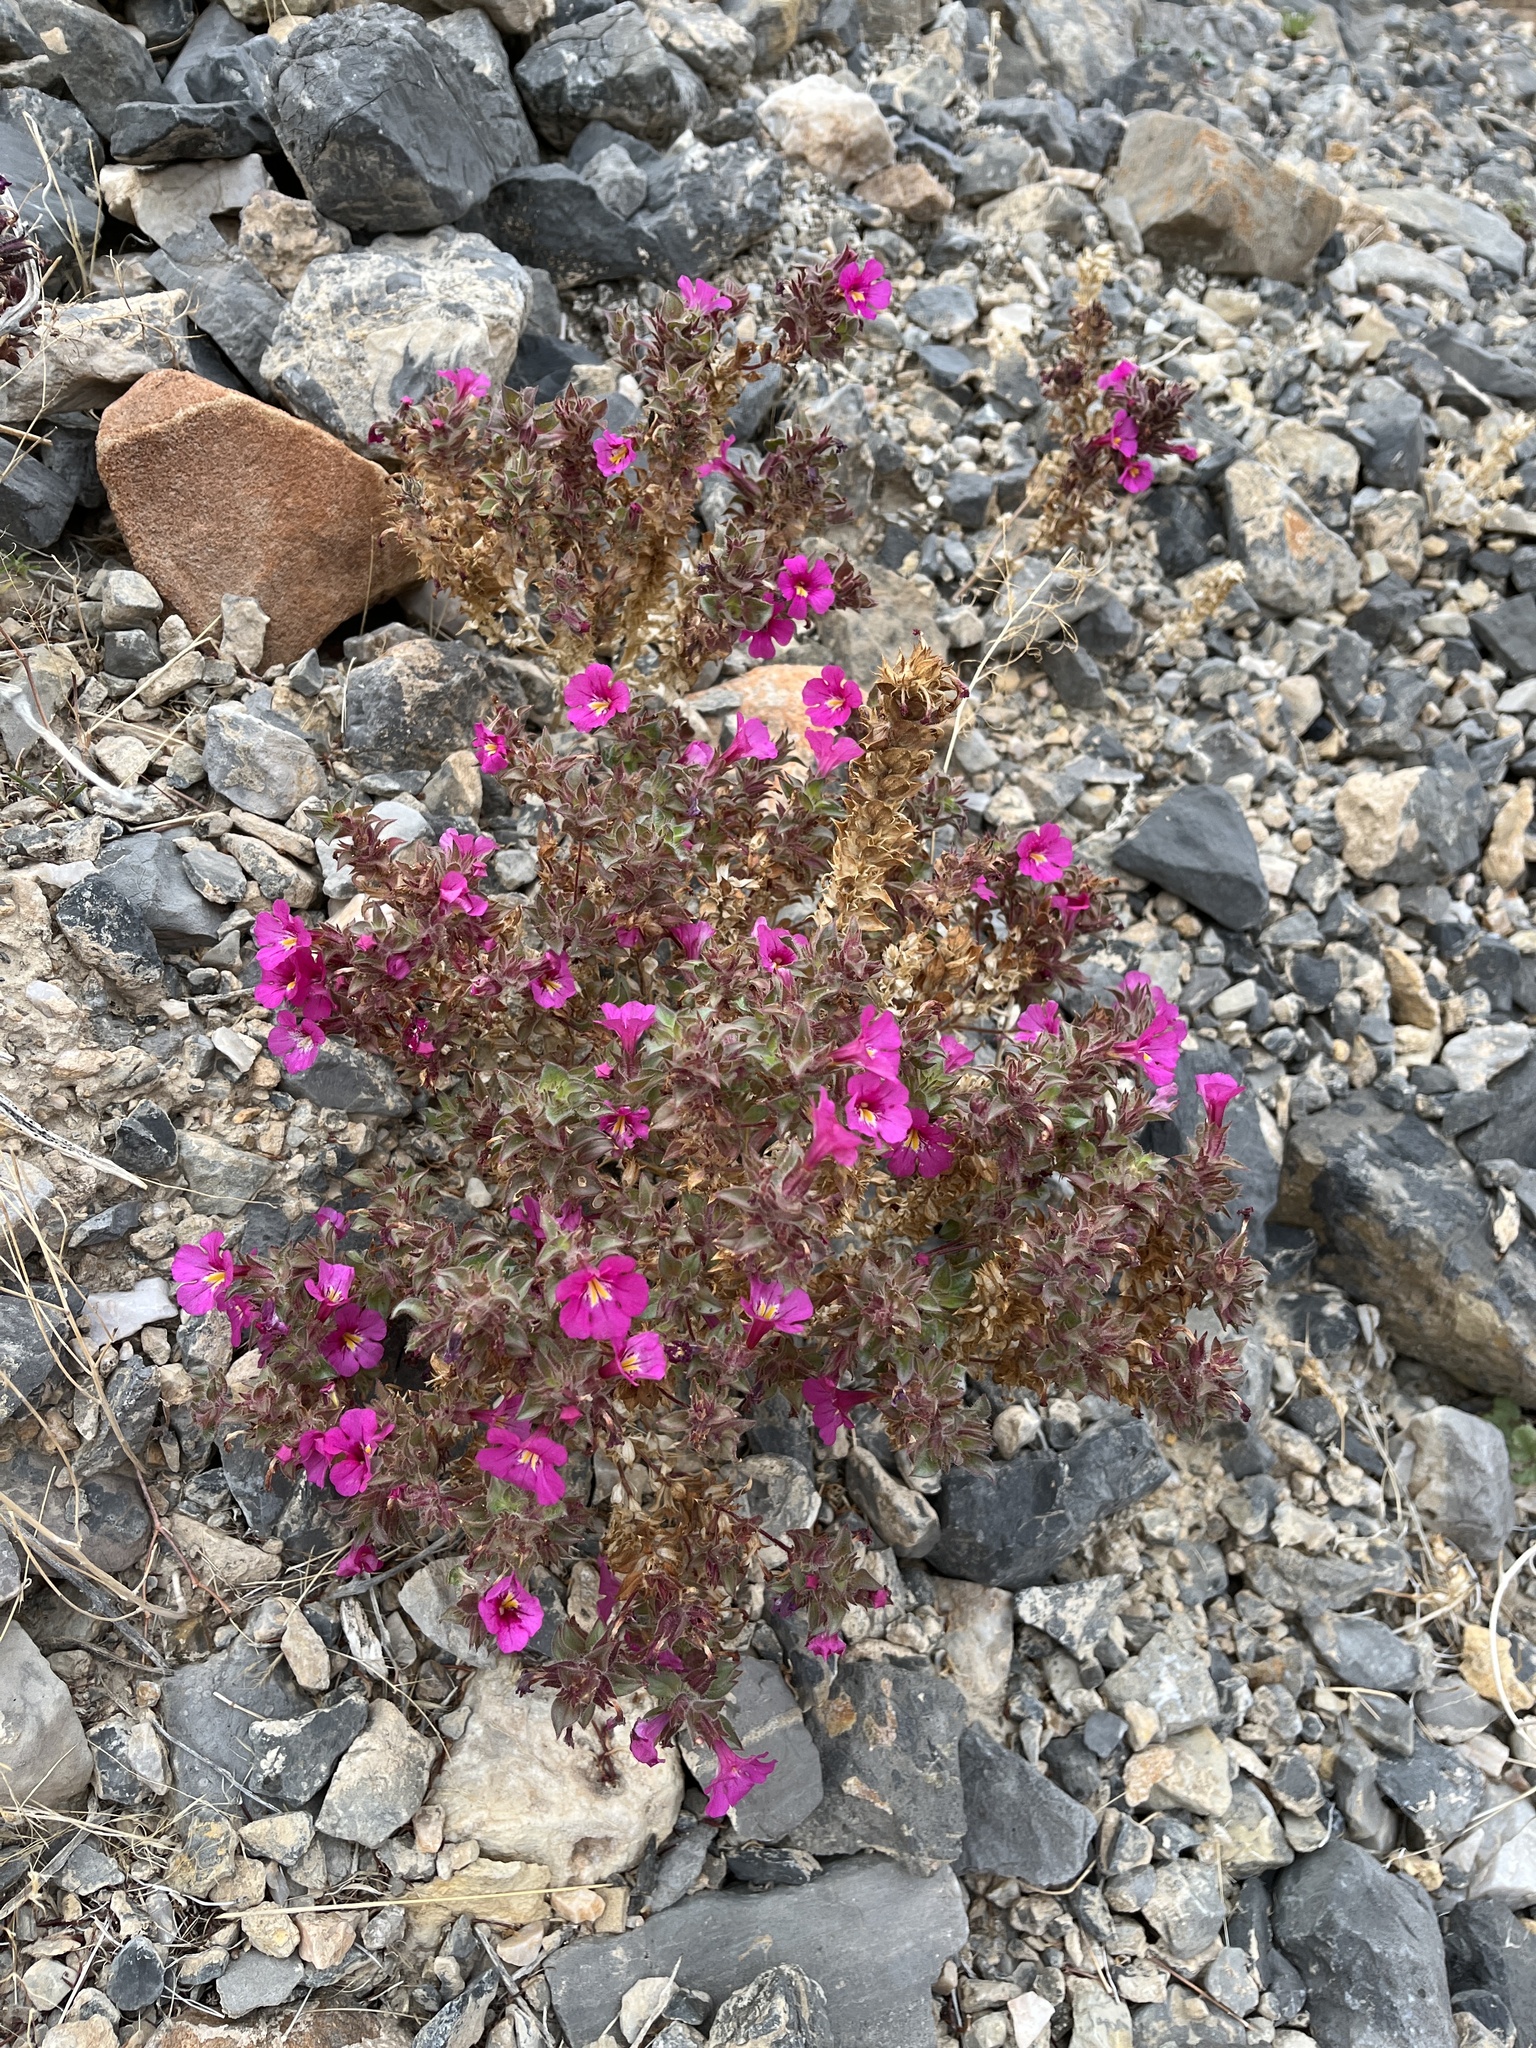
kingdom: Plantae
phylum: Tracheophyta
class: Magnoliopsida
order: Lamiales
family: Phrymaceae
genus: Diplacus
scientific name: Diplacus bigelovii
